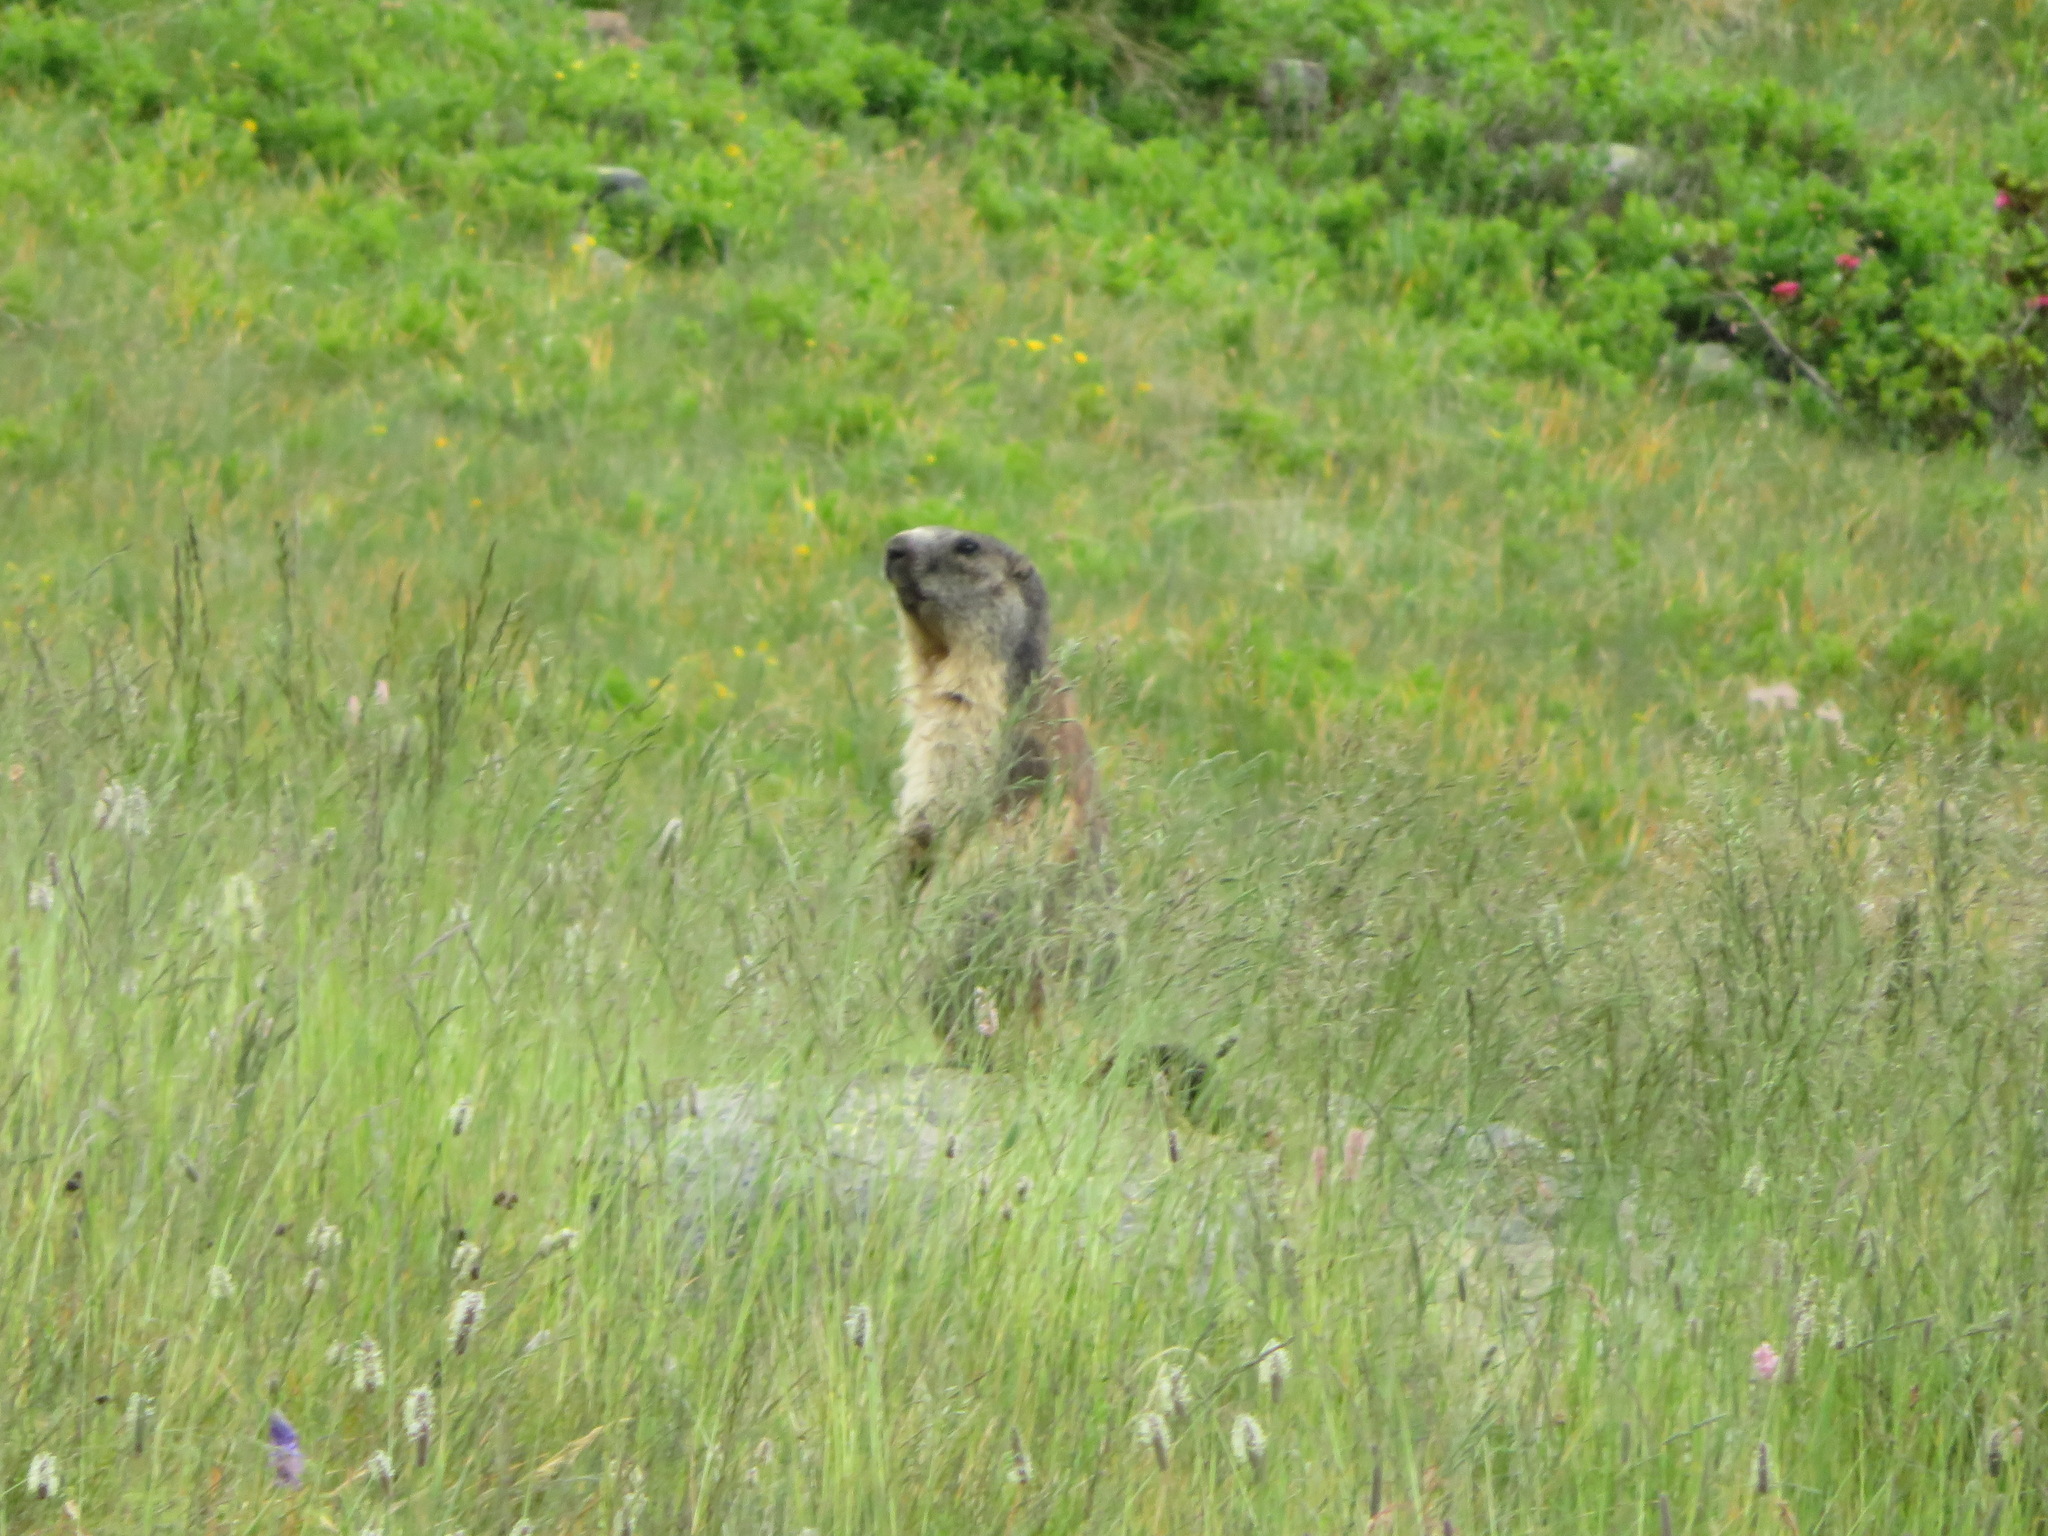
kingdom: Animalia
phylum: Chordata
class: Mammalia
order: Rodentia
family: Sciuridae
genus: Marmota
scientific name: Marmota marmota
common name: Alpine marmot
